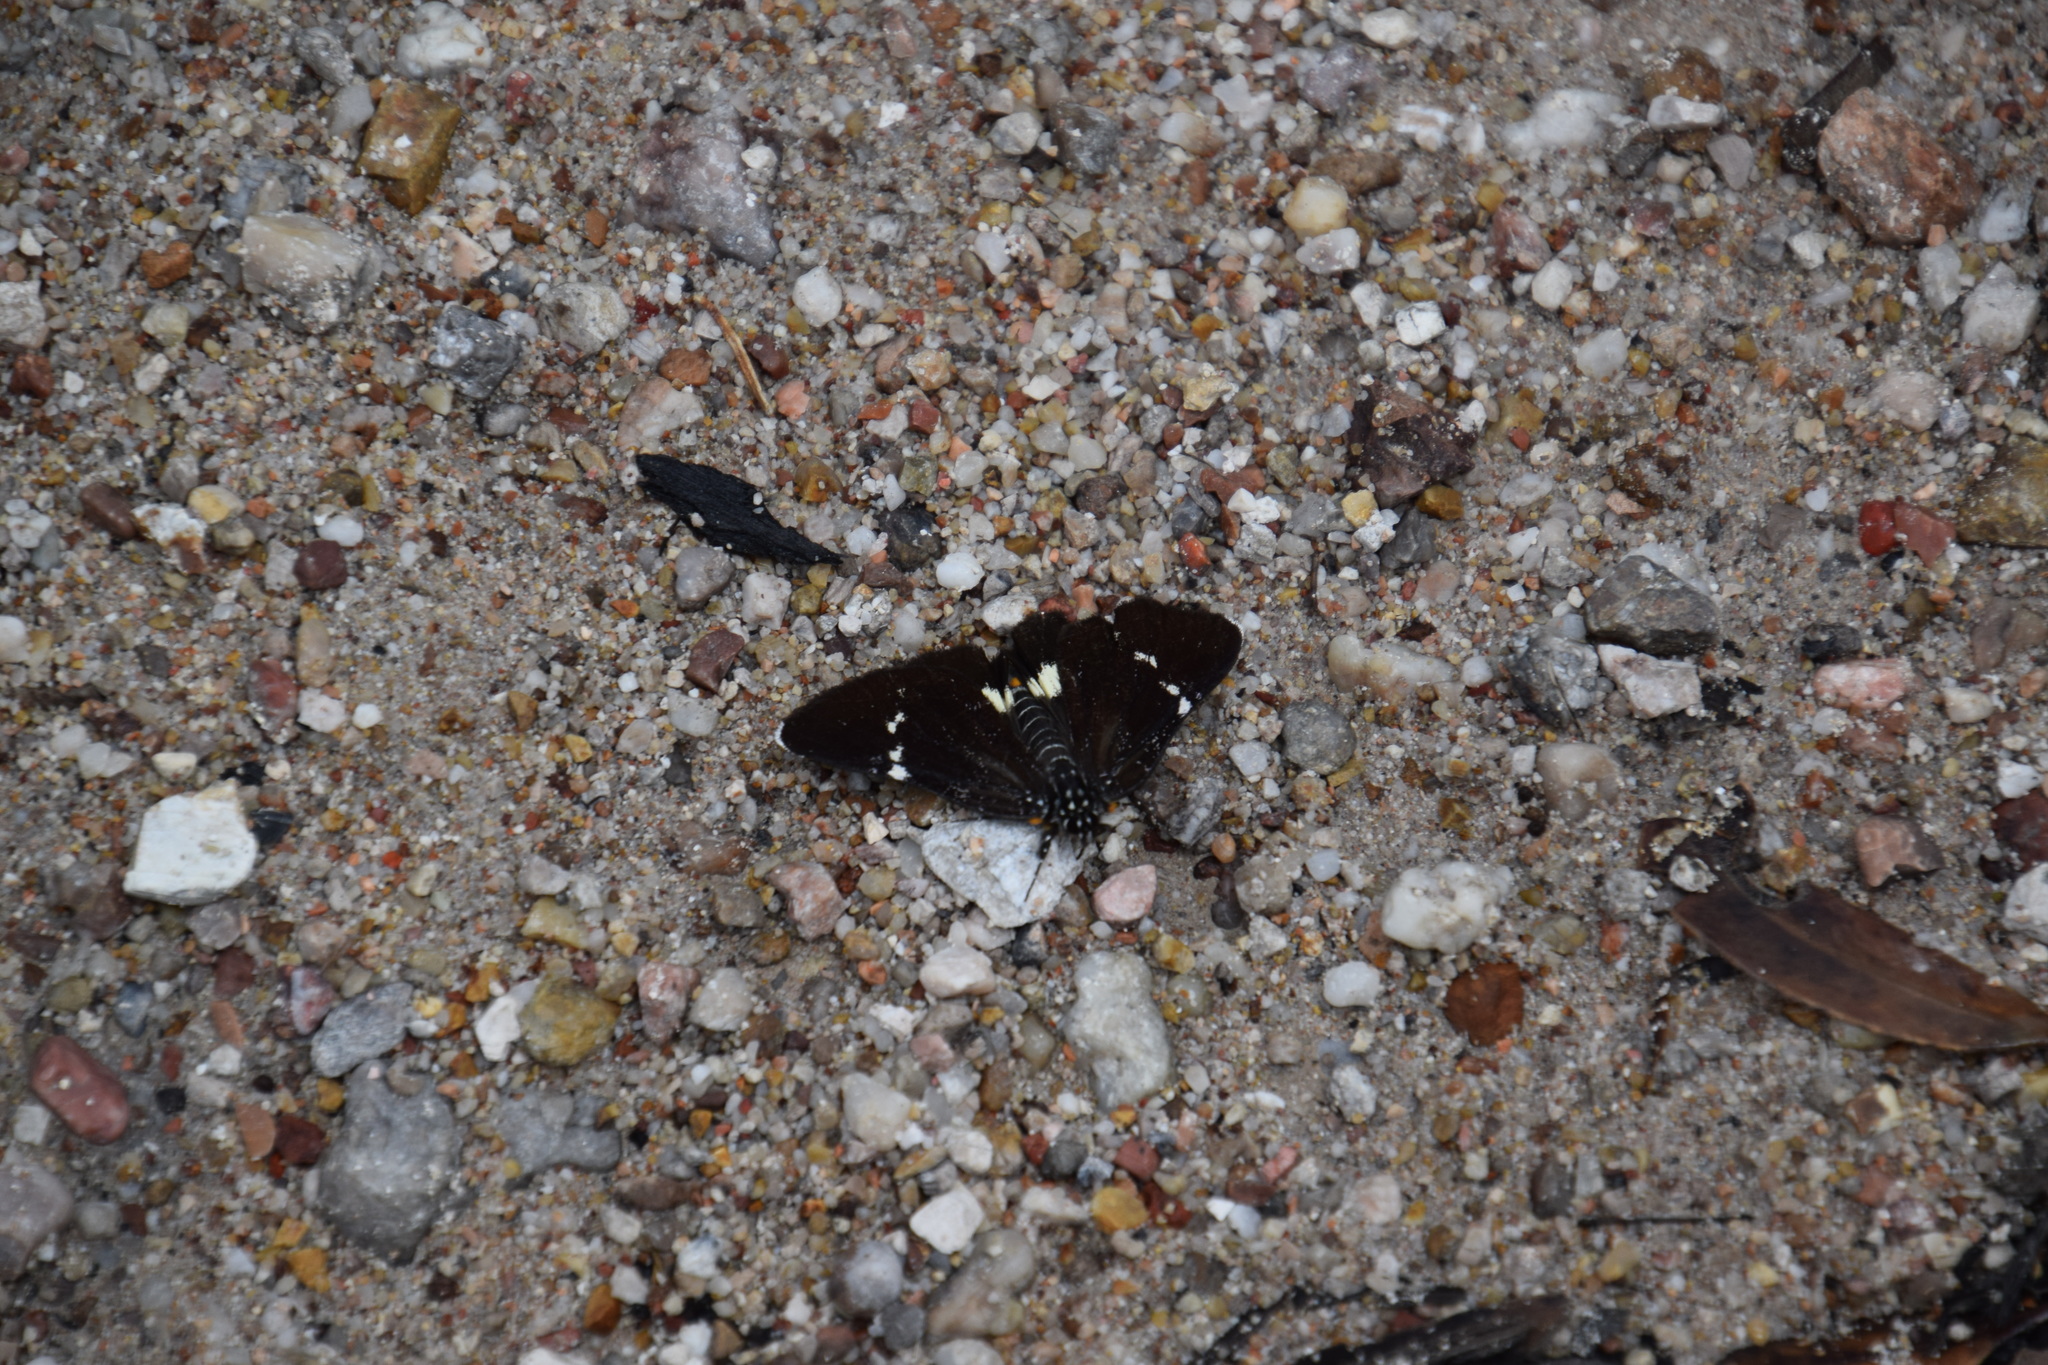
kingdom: Animalia
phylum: Arthropoda
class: Insecta
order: Lepidoptera
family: Noctuidae
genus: Platagarista
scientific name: Platagarista macleayi
